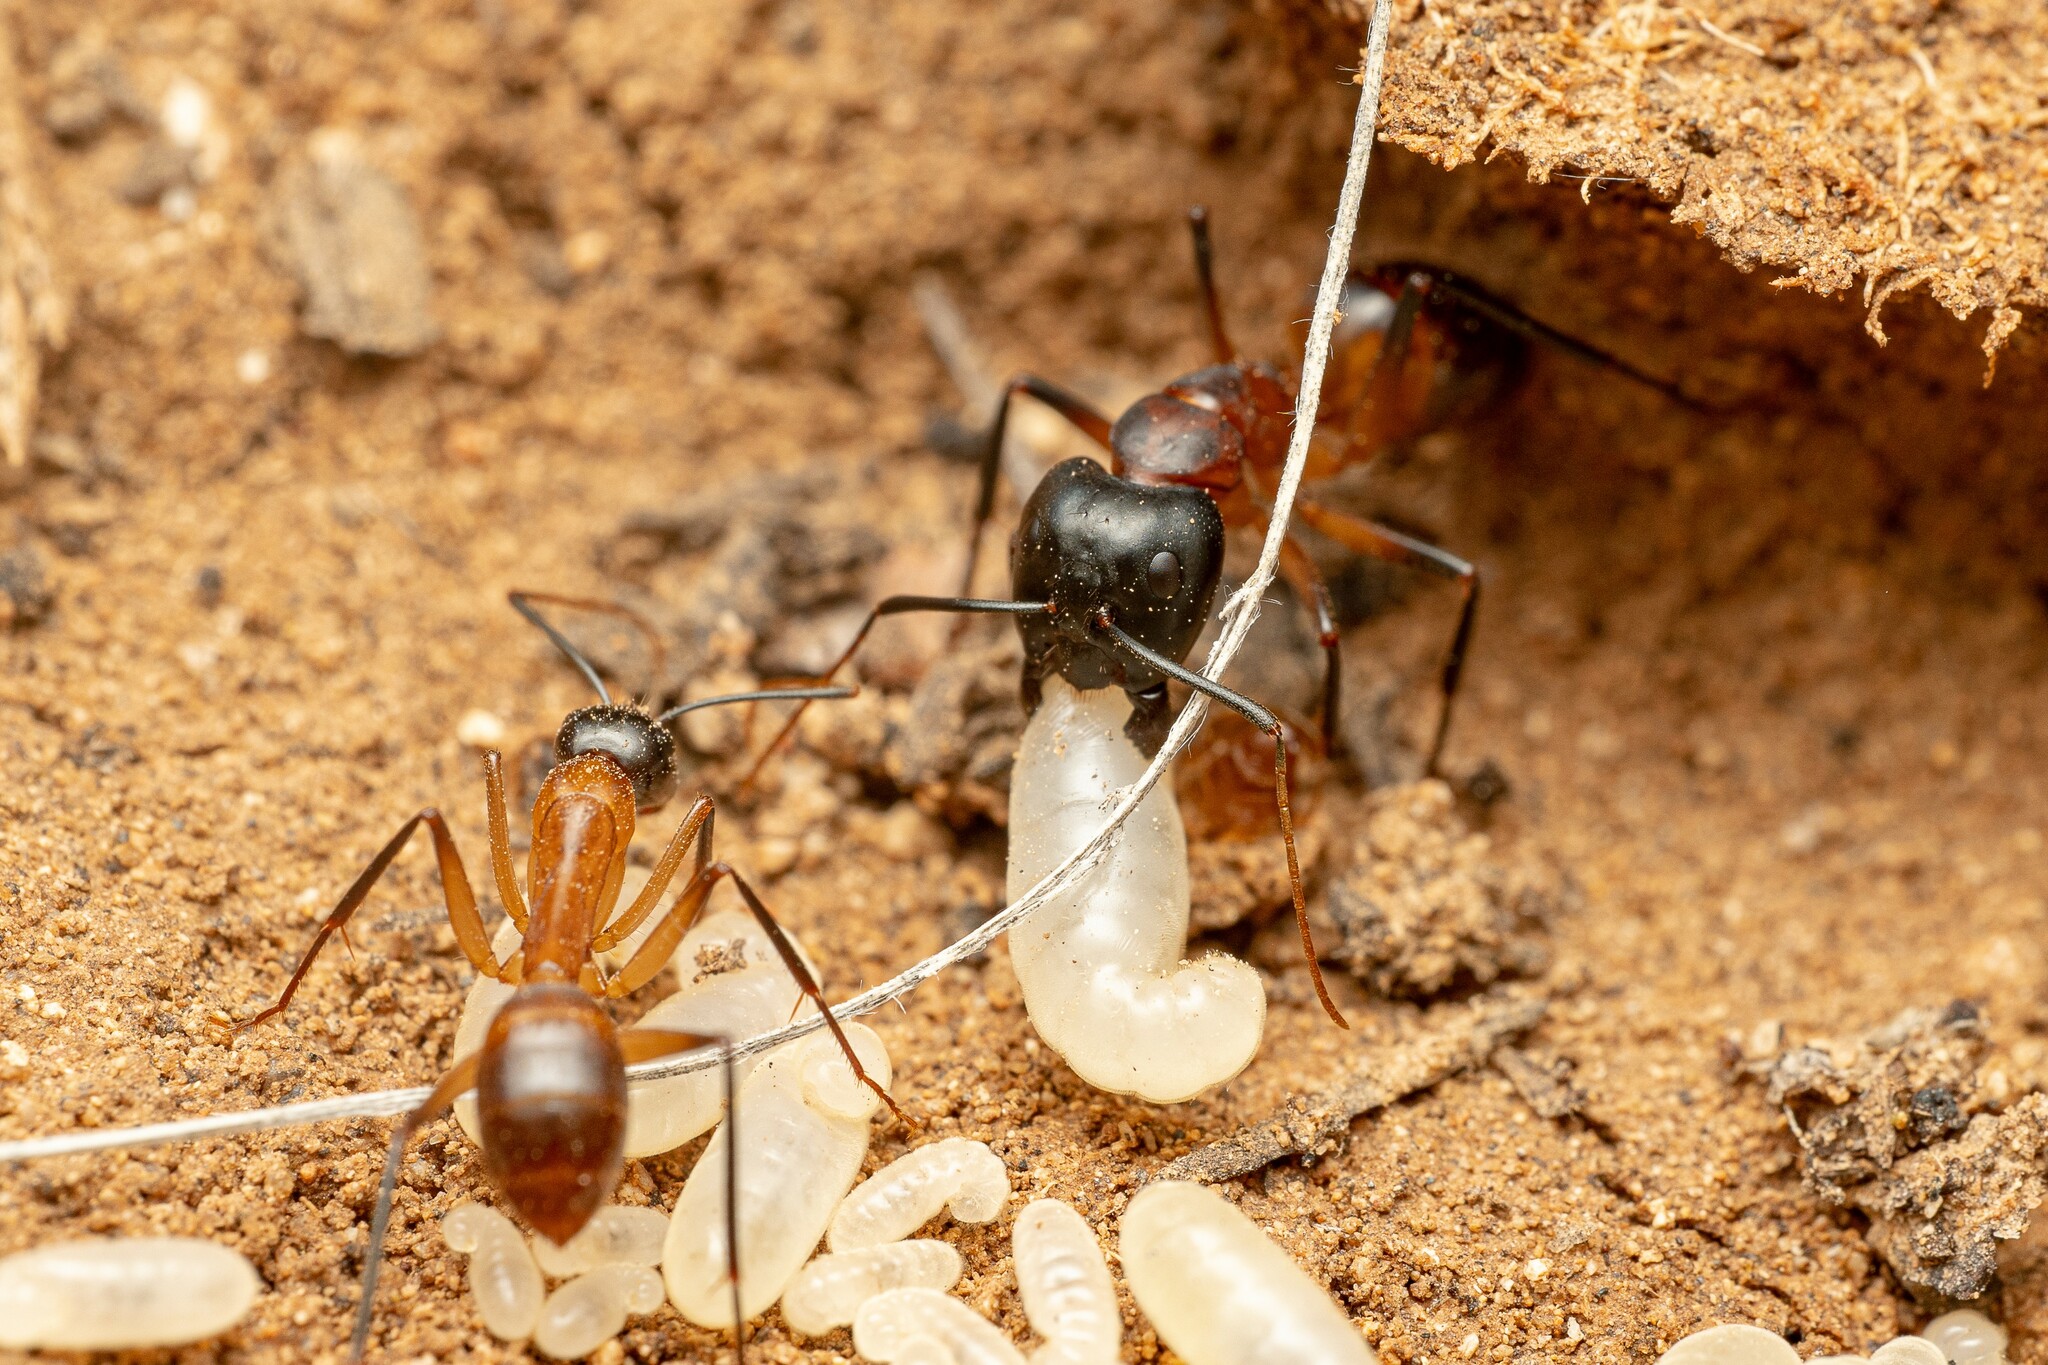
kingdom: Animalia
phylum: Arthropoda
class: Insecta
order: Hymenoptera
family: Formicidae
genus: Camponotus
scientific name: Camponotus ocreatus
